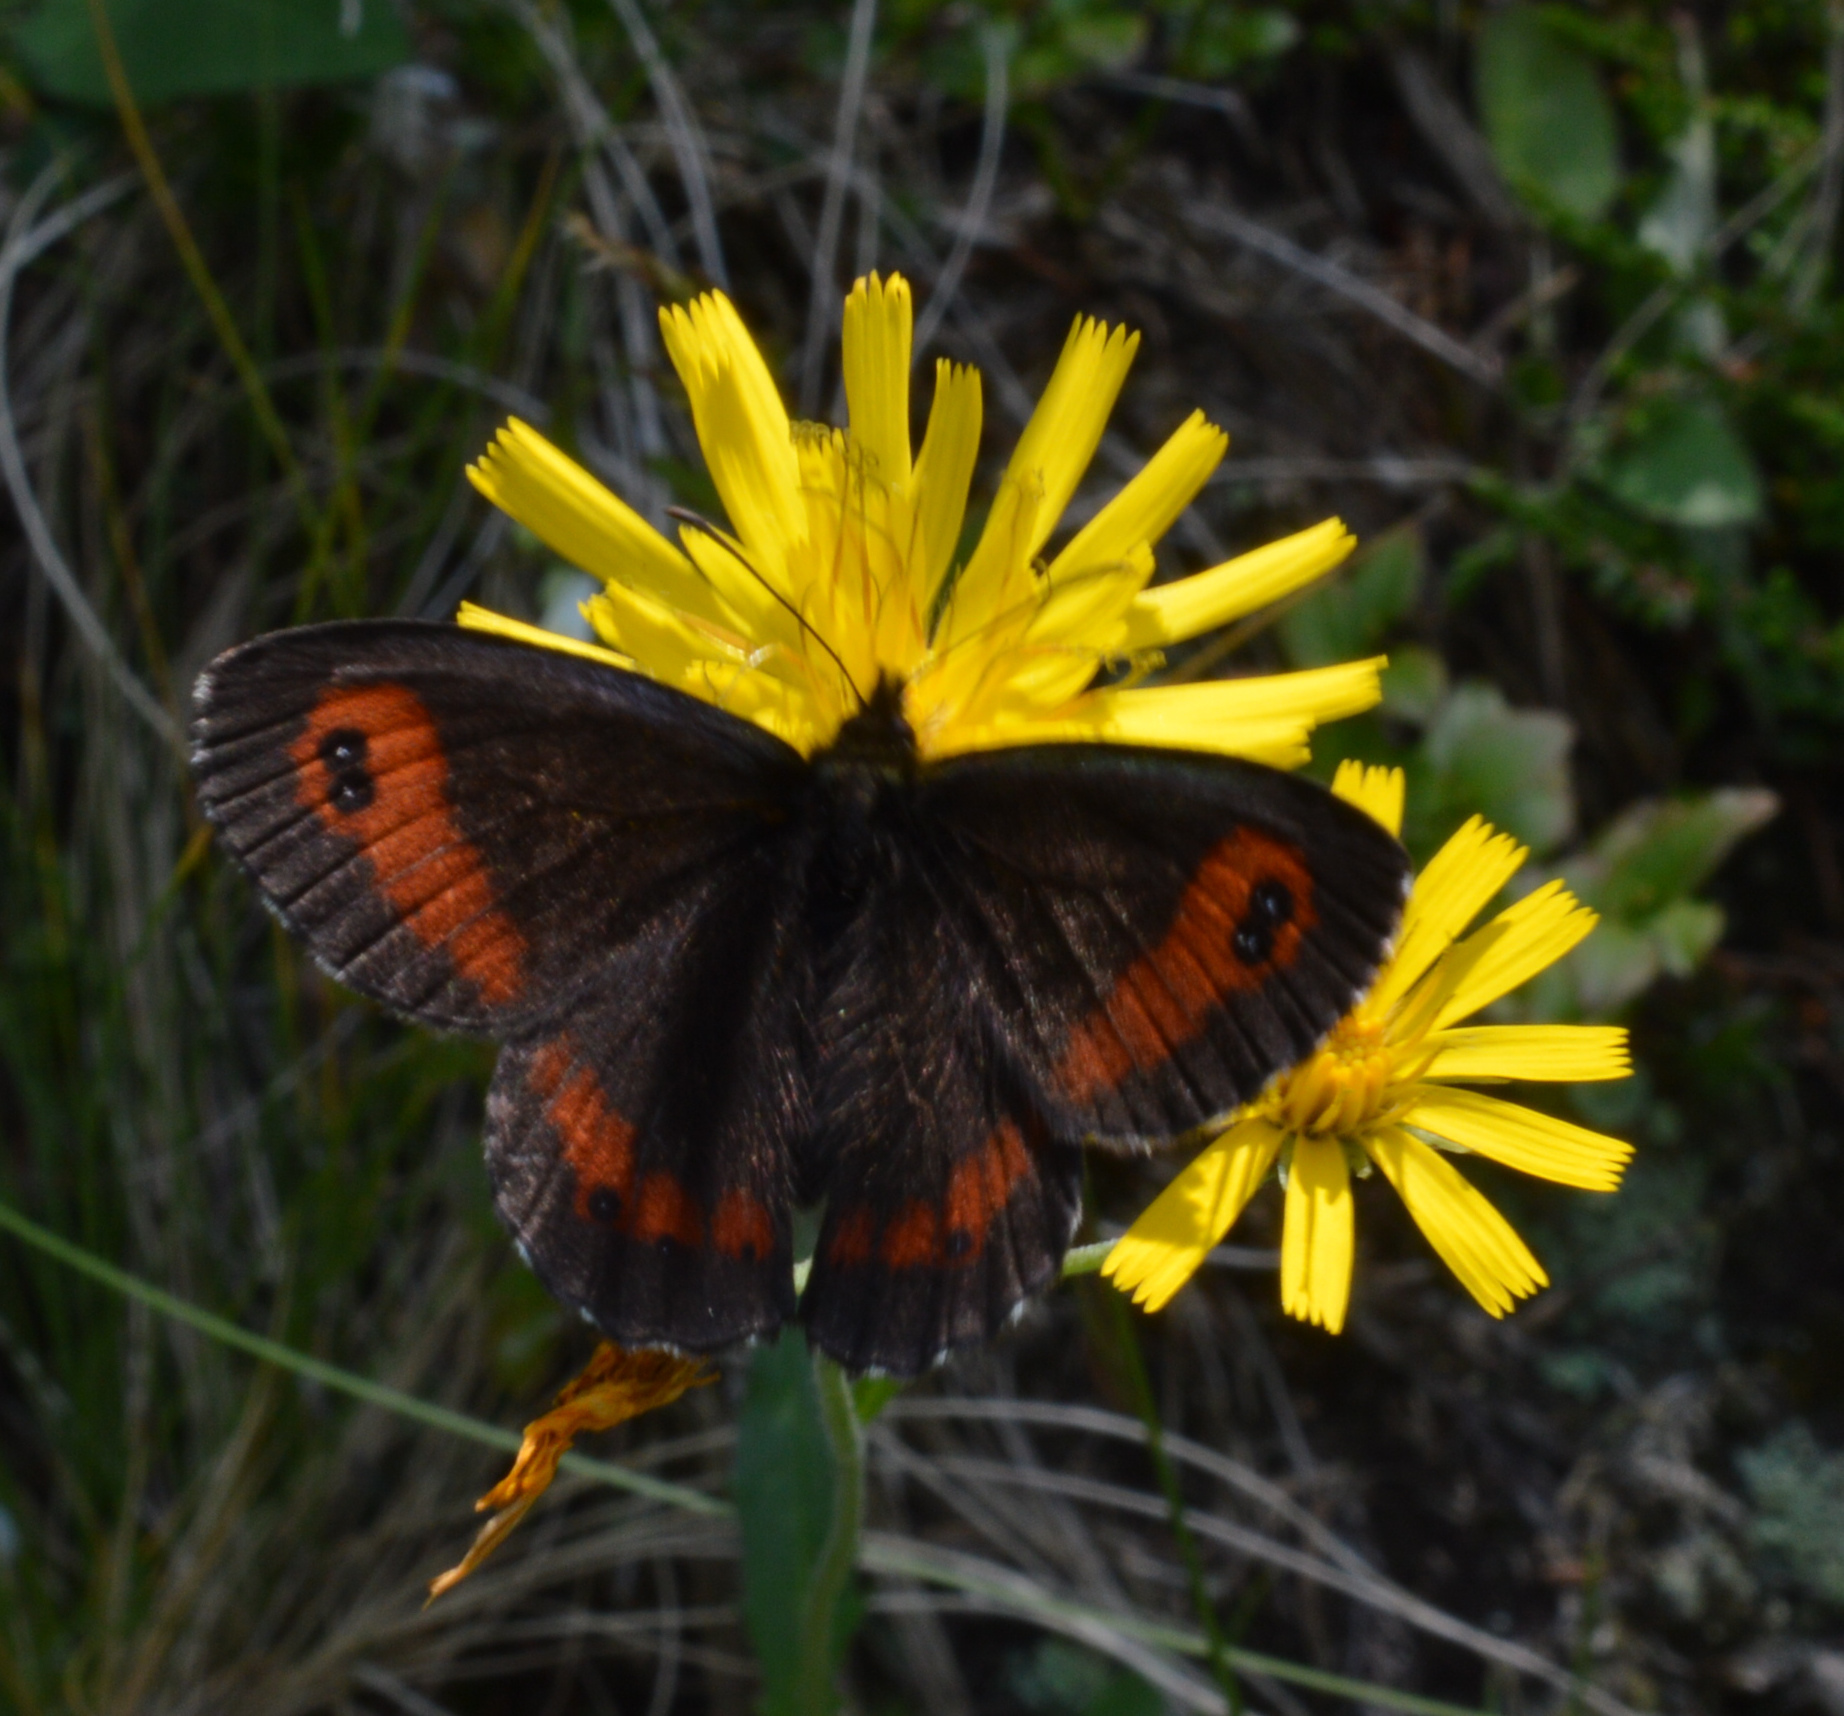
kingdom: Animalia
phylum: Arthropoda
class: Insecta
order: Lepidoptera
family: Nymphalidae
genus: Erebia
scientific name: Erebia euryale
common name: Large ringlet
